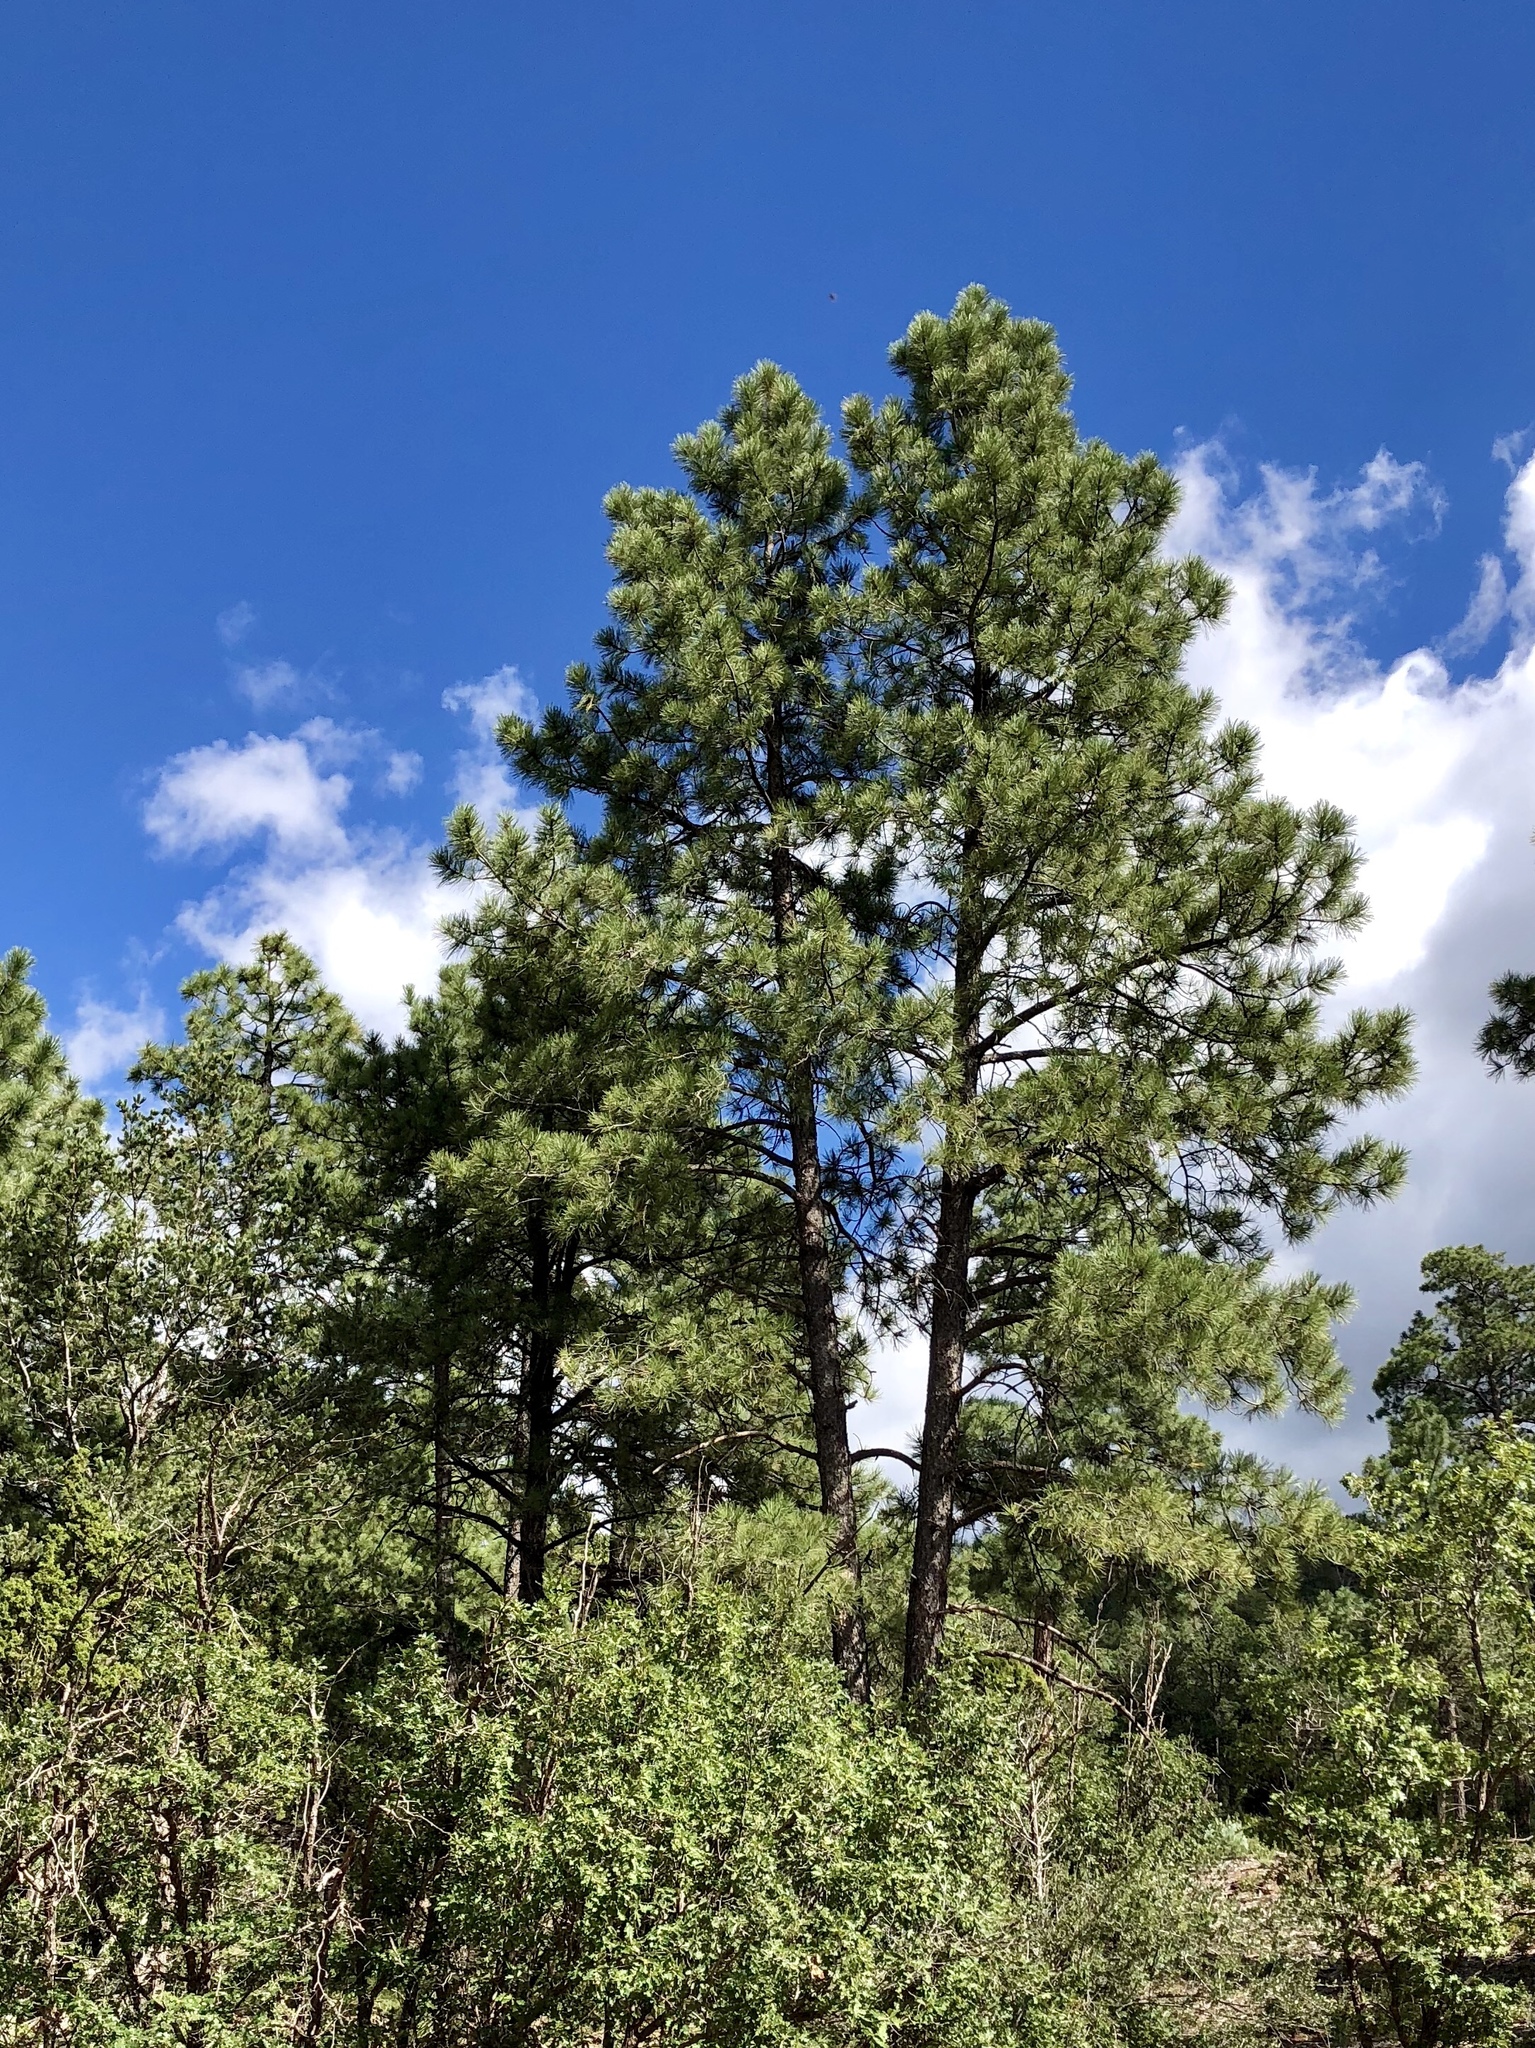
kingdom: Plantae
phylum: Tracheophyta
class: Pinopsida
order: Pinales
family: Pinaceae
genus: Pinus
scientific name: Pinus ponderosa
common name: Western yellow-pine
